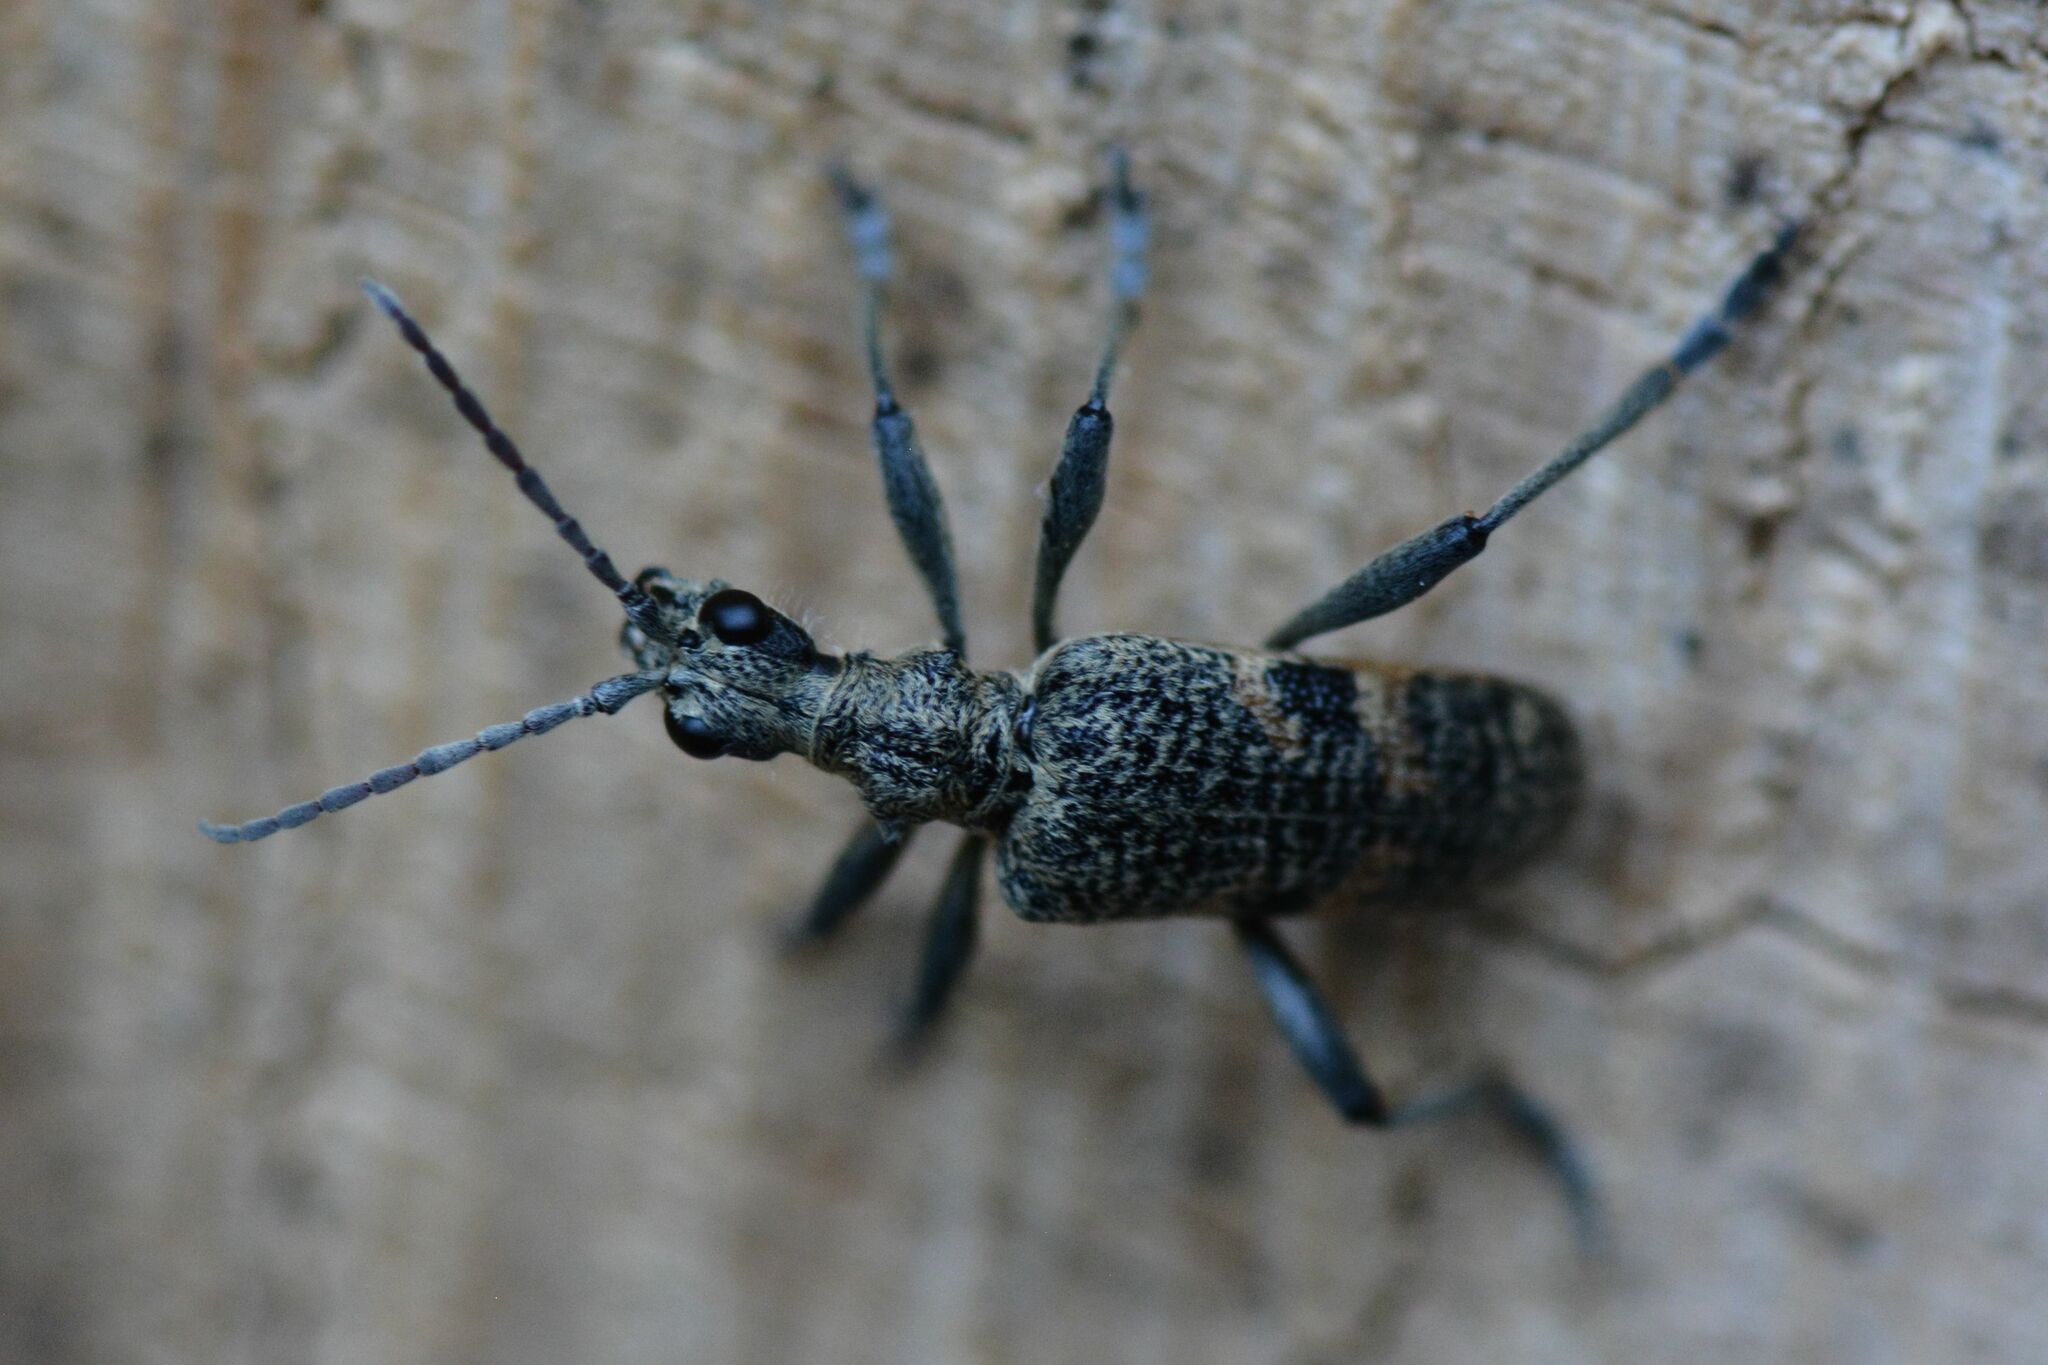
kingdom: Animalia
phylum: Arthropoda
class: Insecta
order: Coleoptera
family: Cerambycidae
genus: Rhagium
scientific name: Rhagium mordax
